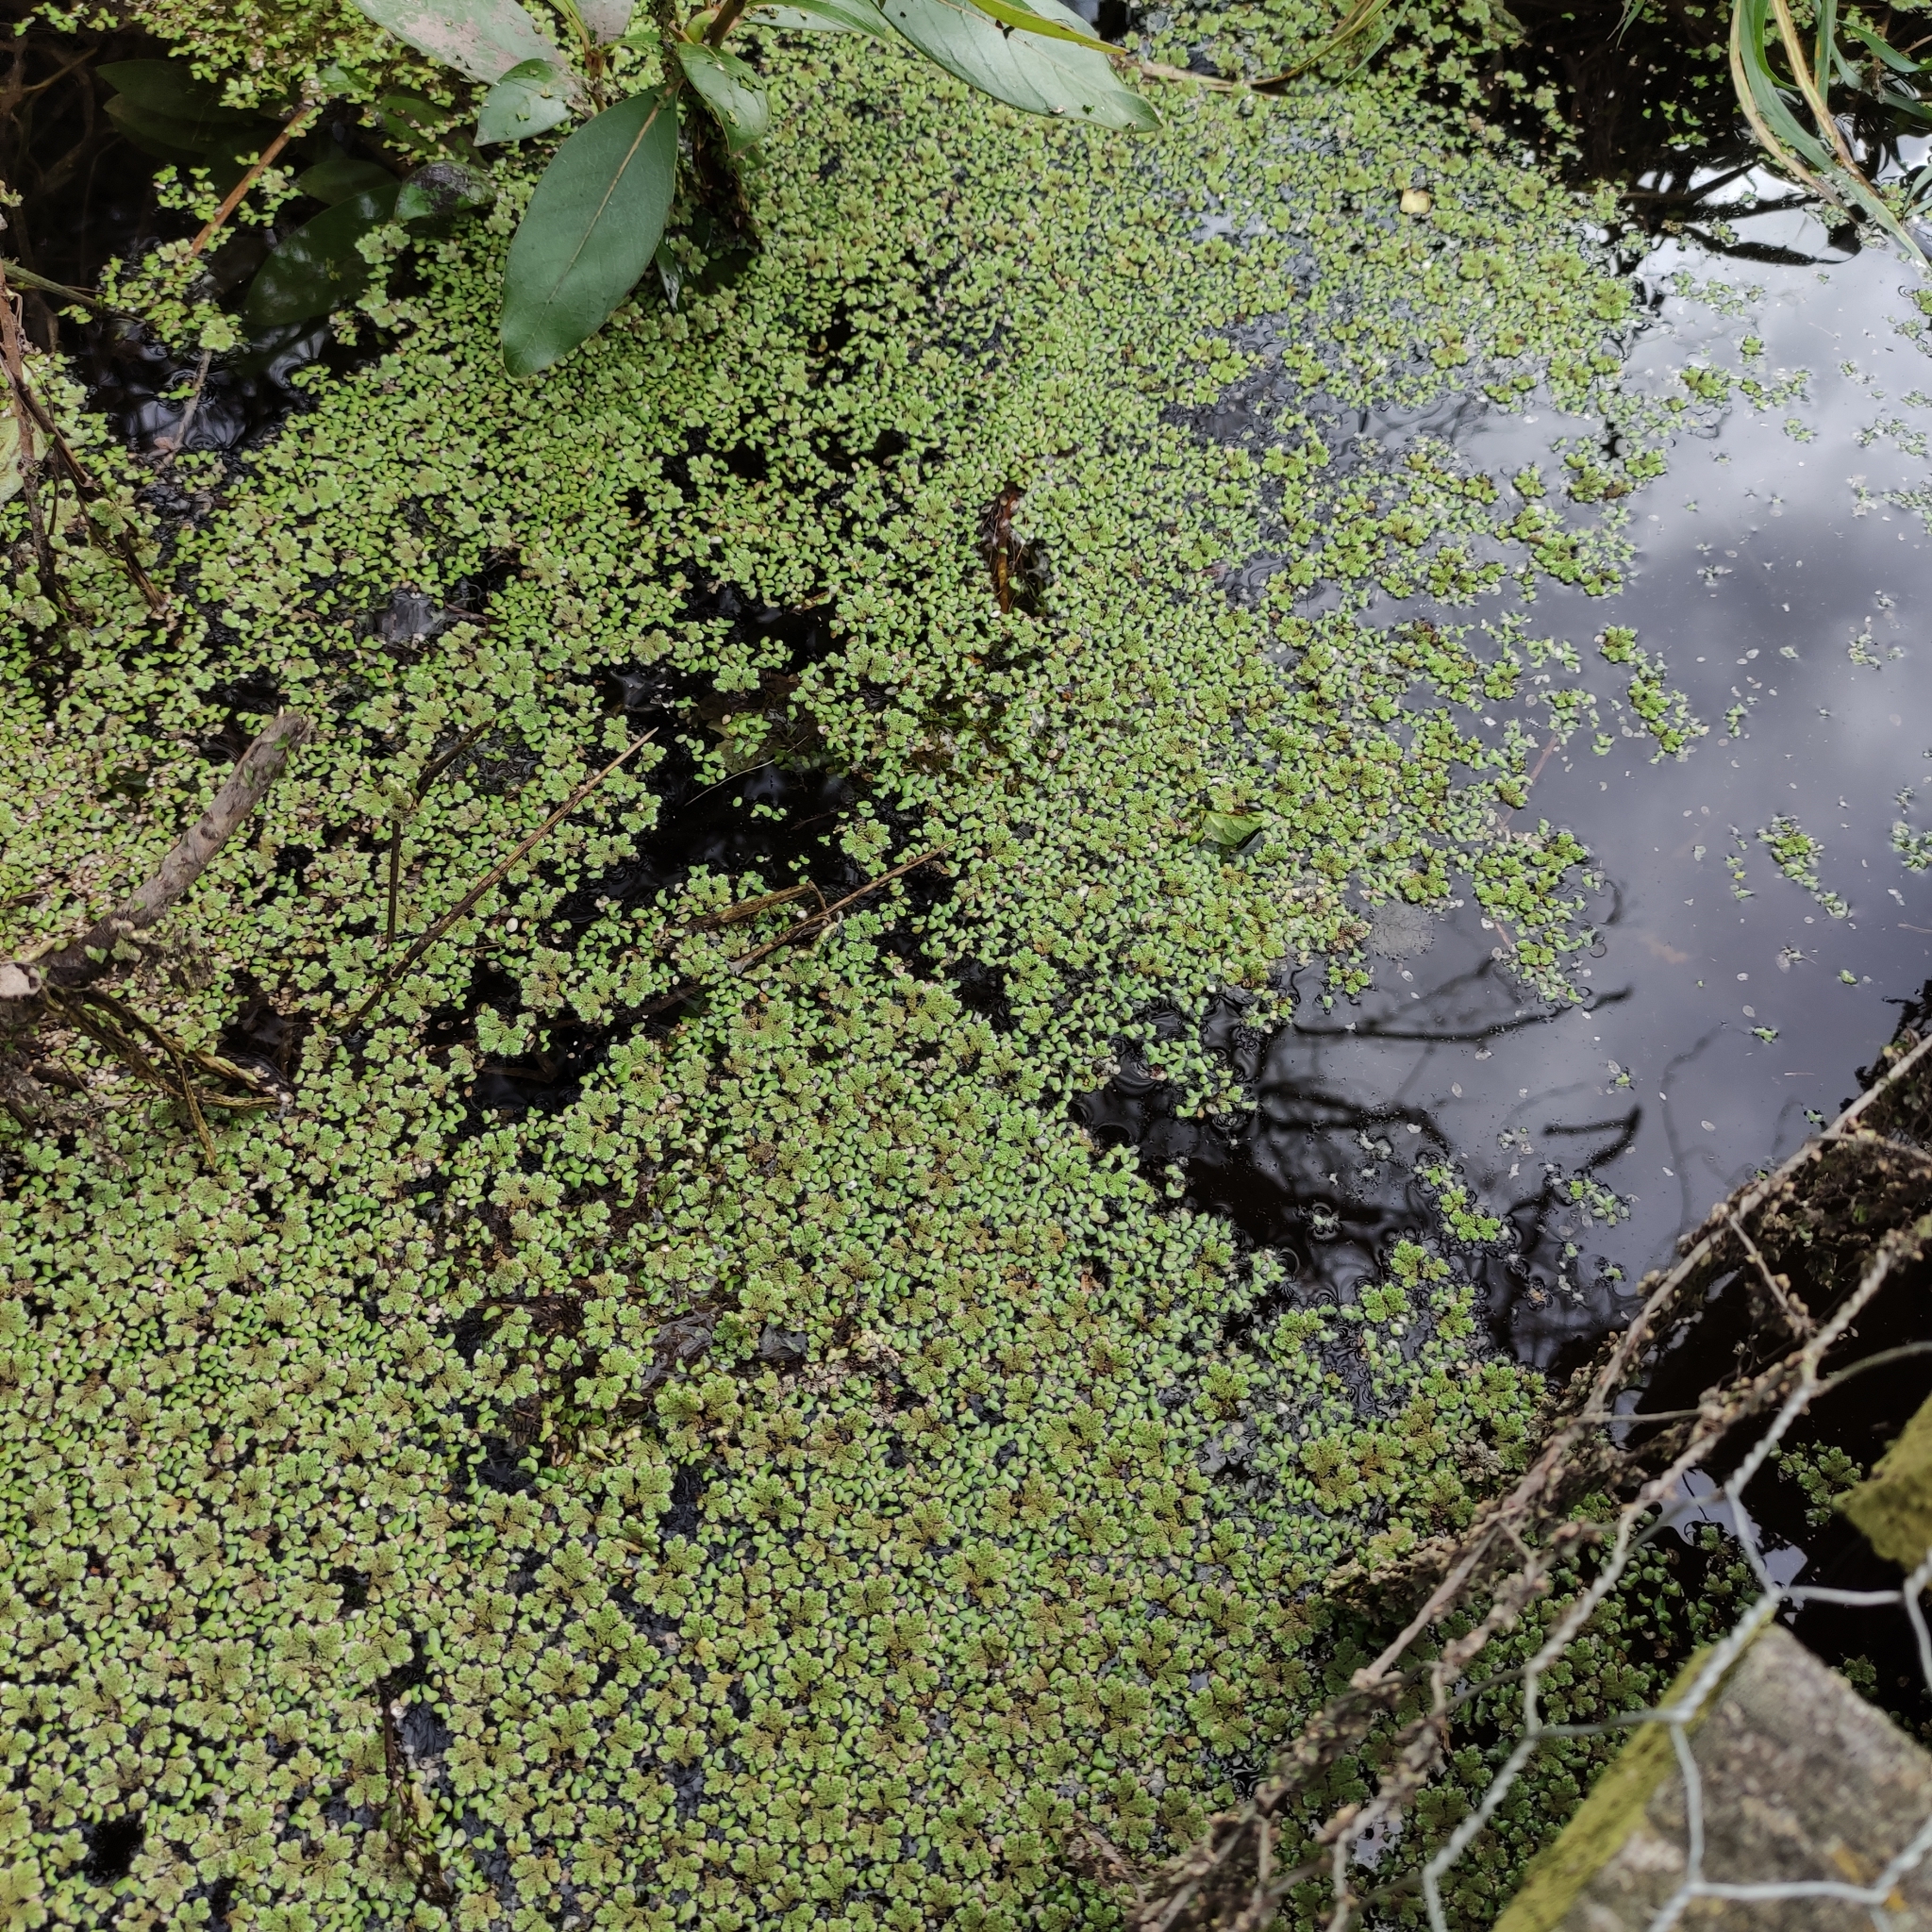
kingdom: Plantae
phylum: Tracheophyta
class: Polypodiopsida
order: Salviniales
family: Salviniaceae
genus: Azolla
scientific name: Azolla rubra
